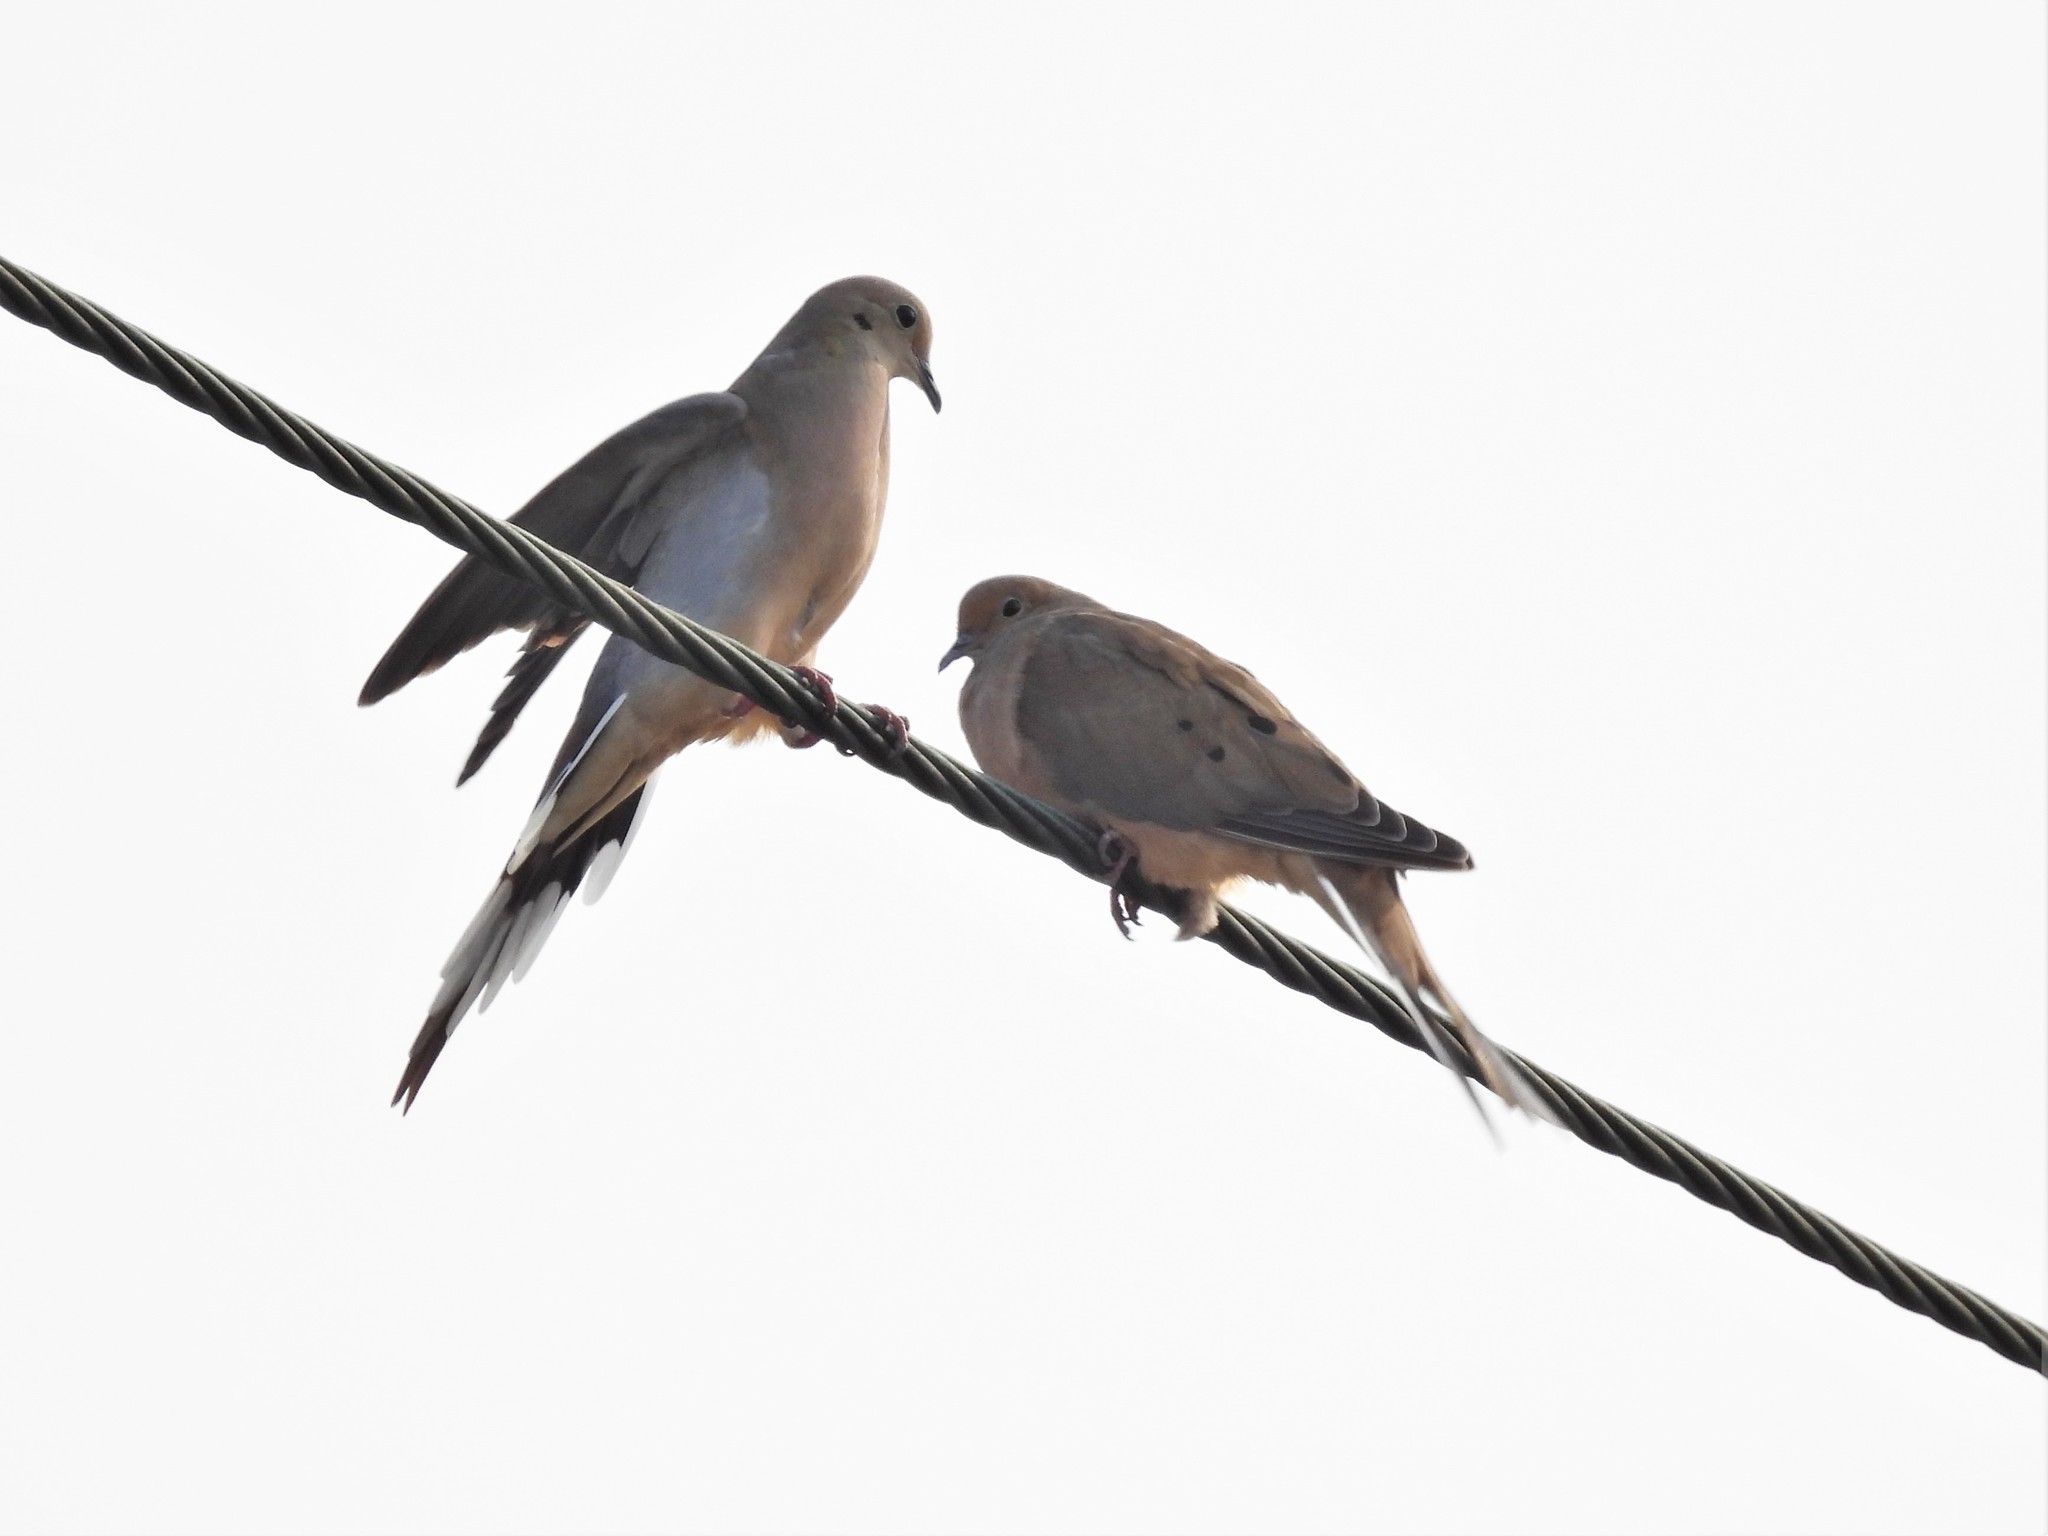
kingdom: Animalia
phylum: Chordata
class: Aves
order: Columbiformes
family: Columbidae
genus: Zenaida
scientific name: Zenaida macroura
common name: Mourning dove
